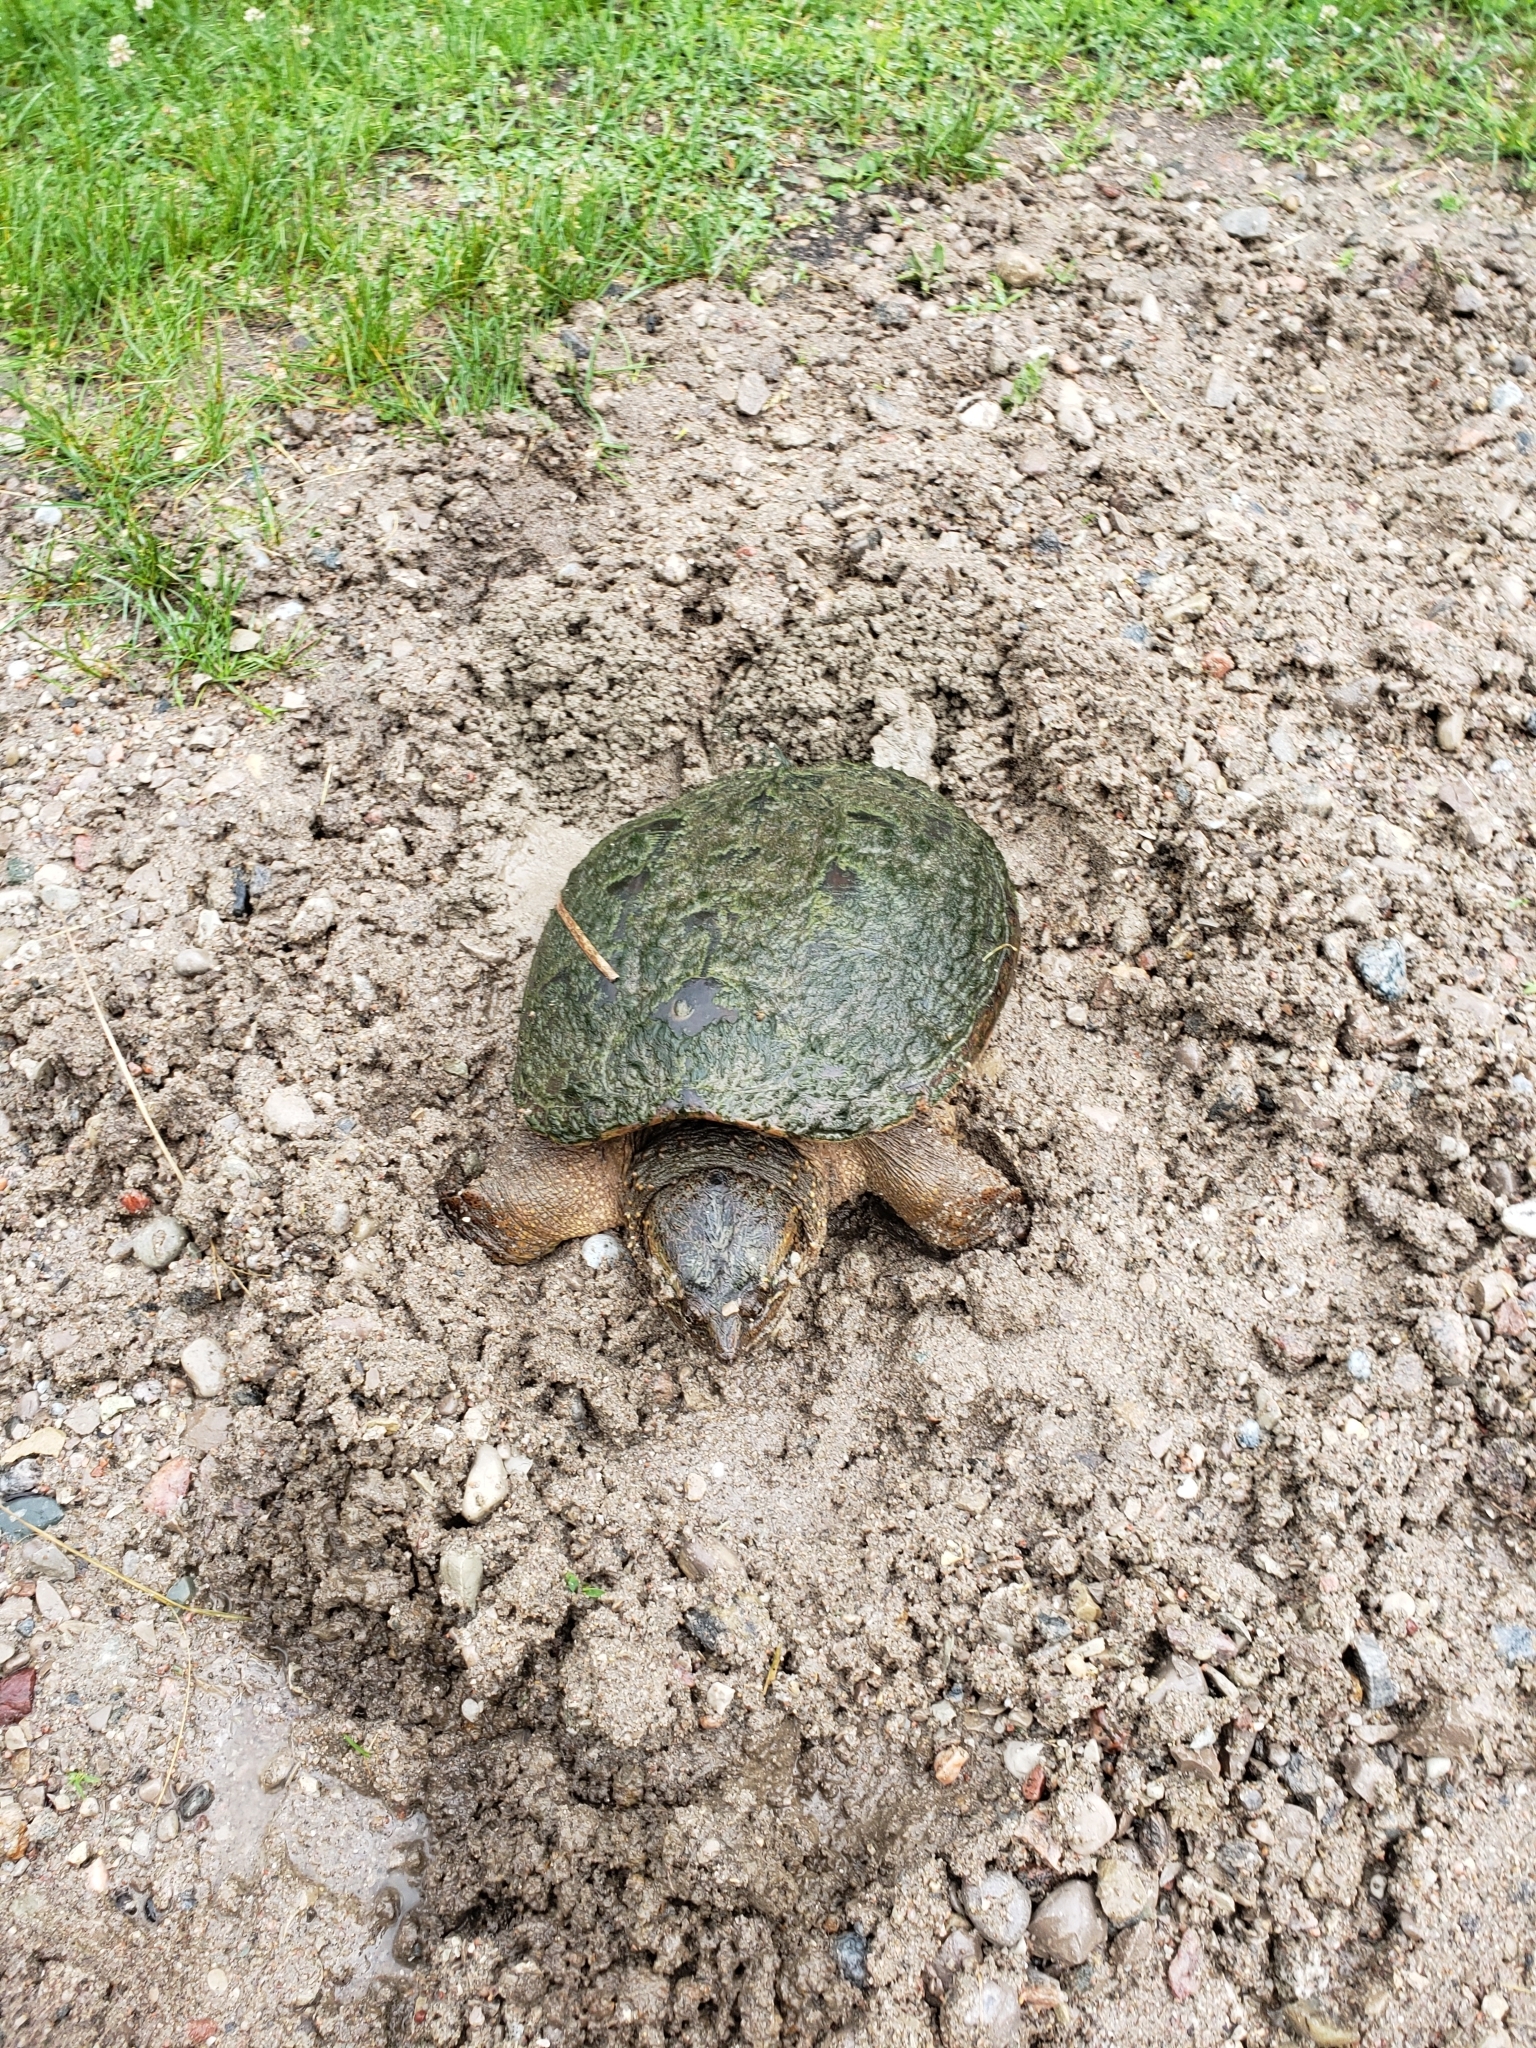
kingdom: Animalia
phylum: Chordata
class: Testudines
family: Chelydridae
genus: Chelydra
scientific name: Chelydra serpentina
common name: Common snapping turtle
